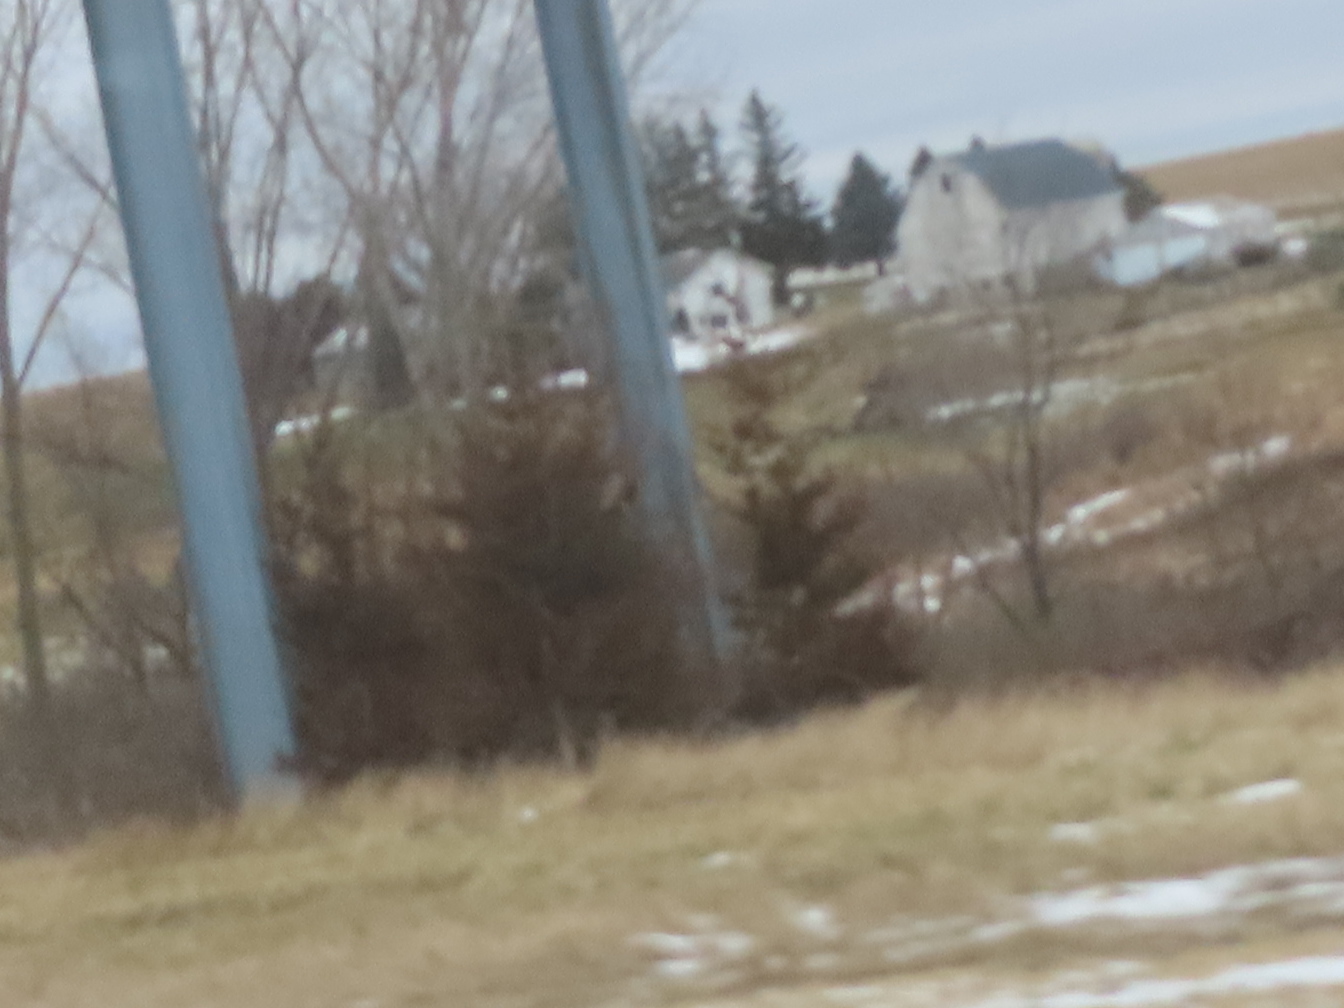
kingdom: Plantae
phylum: Tracheophyta
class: Pinopsida
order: Pinales
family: Cupressaceae
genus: Juniperus
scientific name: Juniperus virginiana
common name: Red juniper
